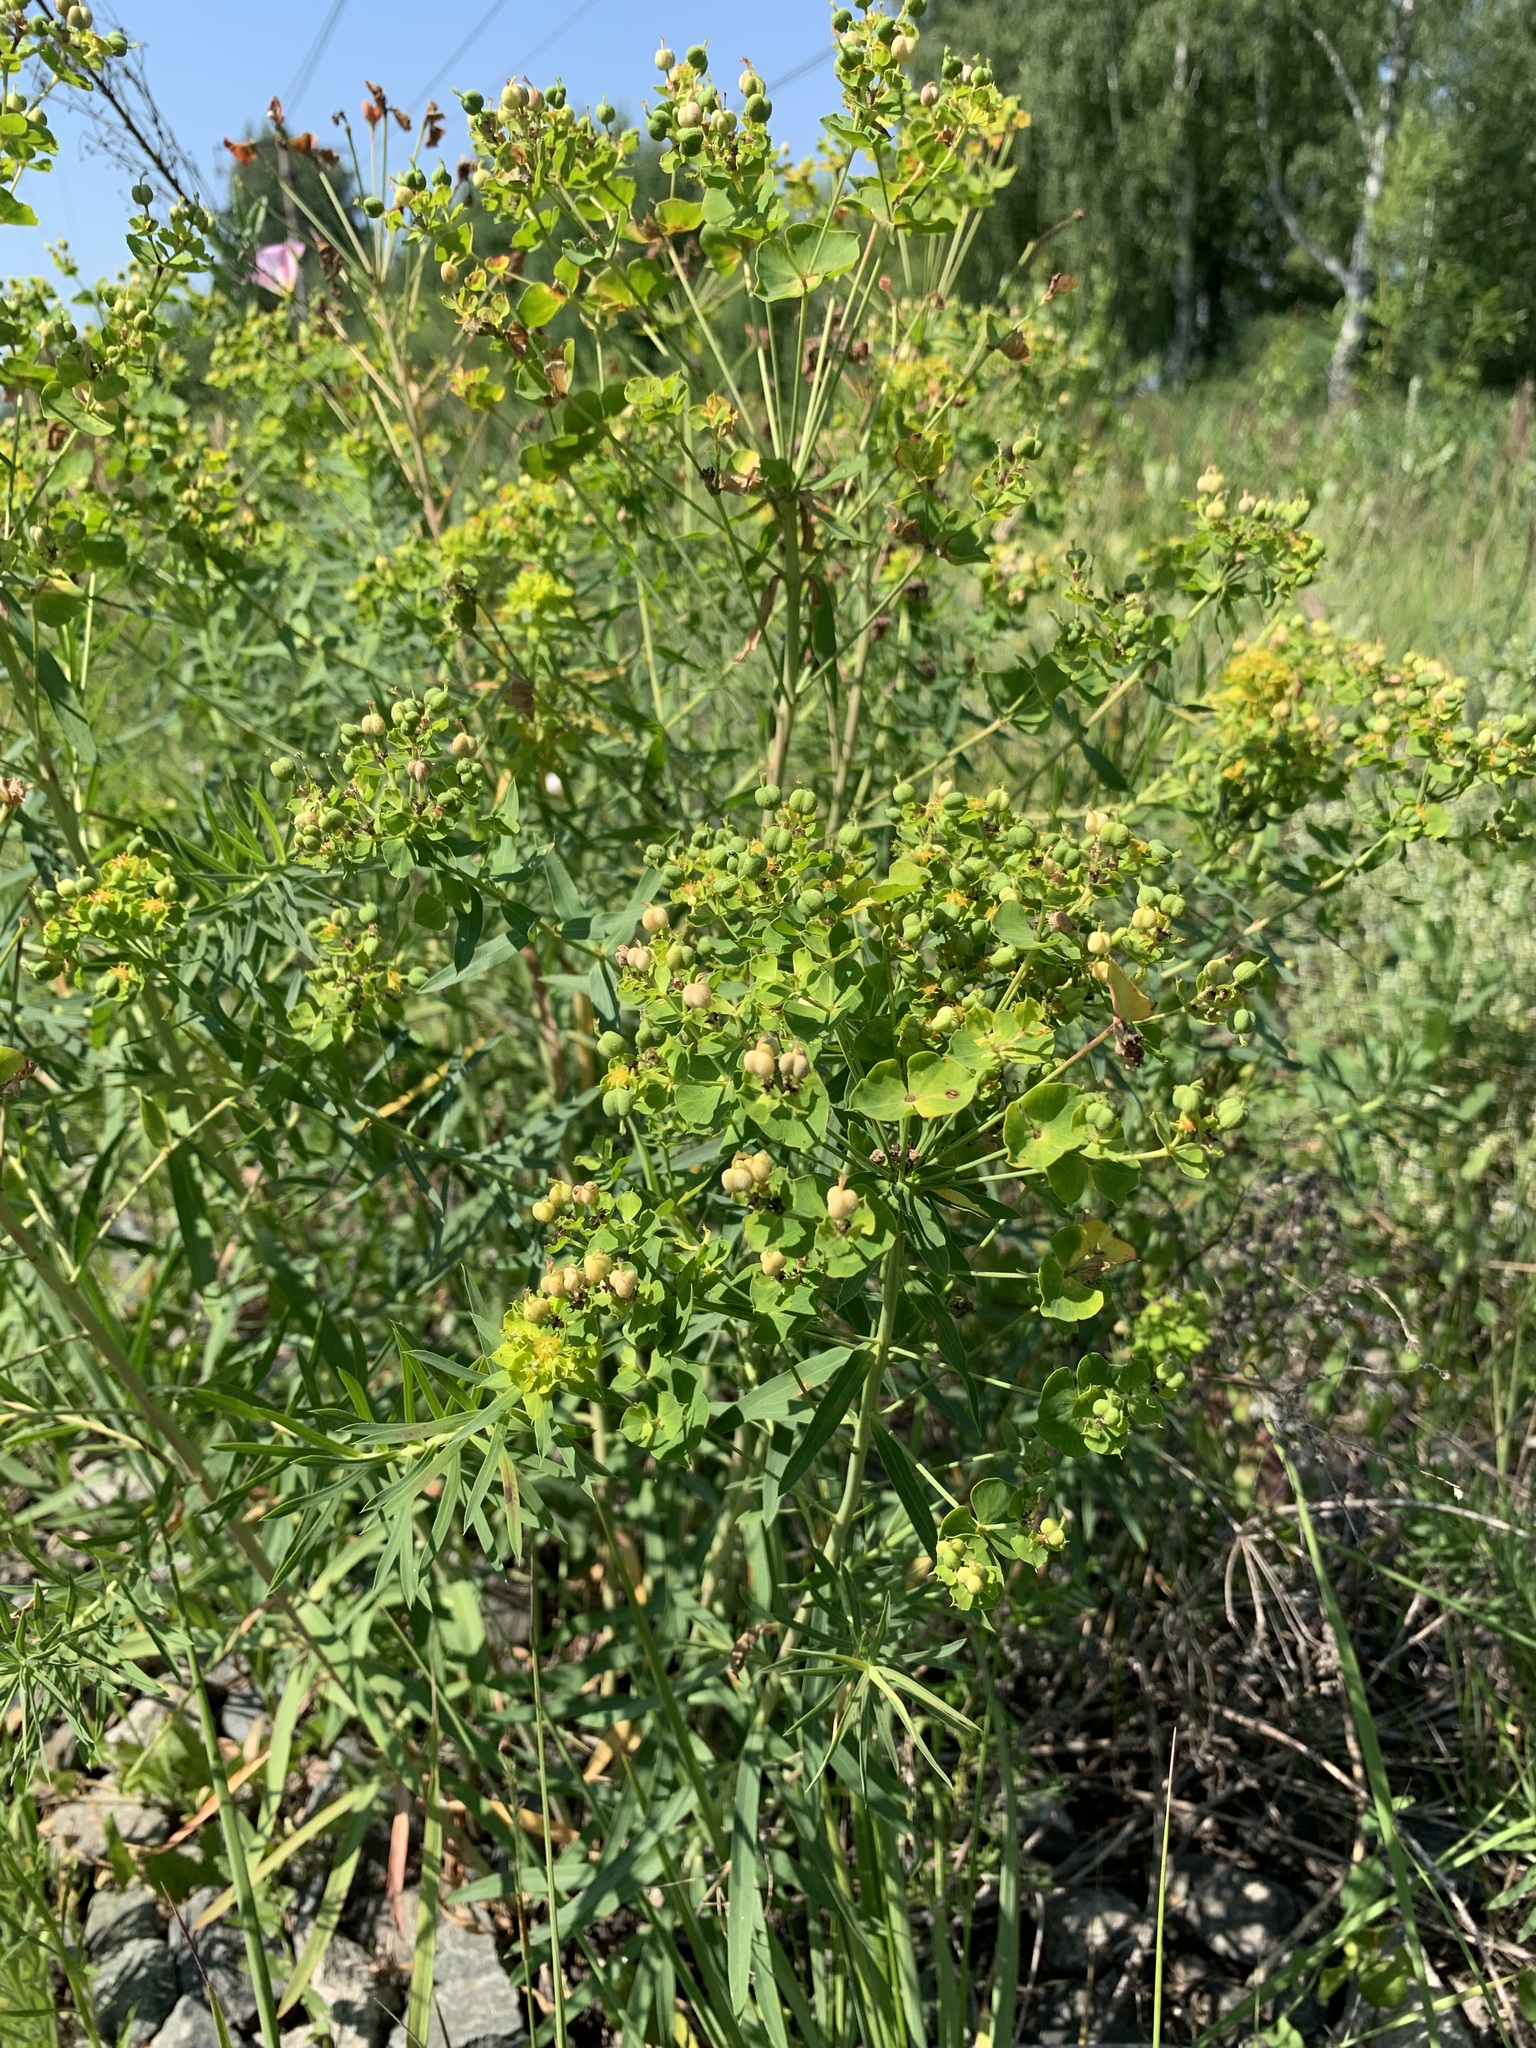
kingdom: Plantae
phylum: Tracheophyta
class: Magnoliopsida
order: Malpighiales
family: Euphorbiaceae
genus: Euphorbia
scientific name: Euphorbia virgata
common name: Leafy spurge
